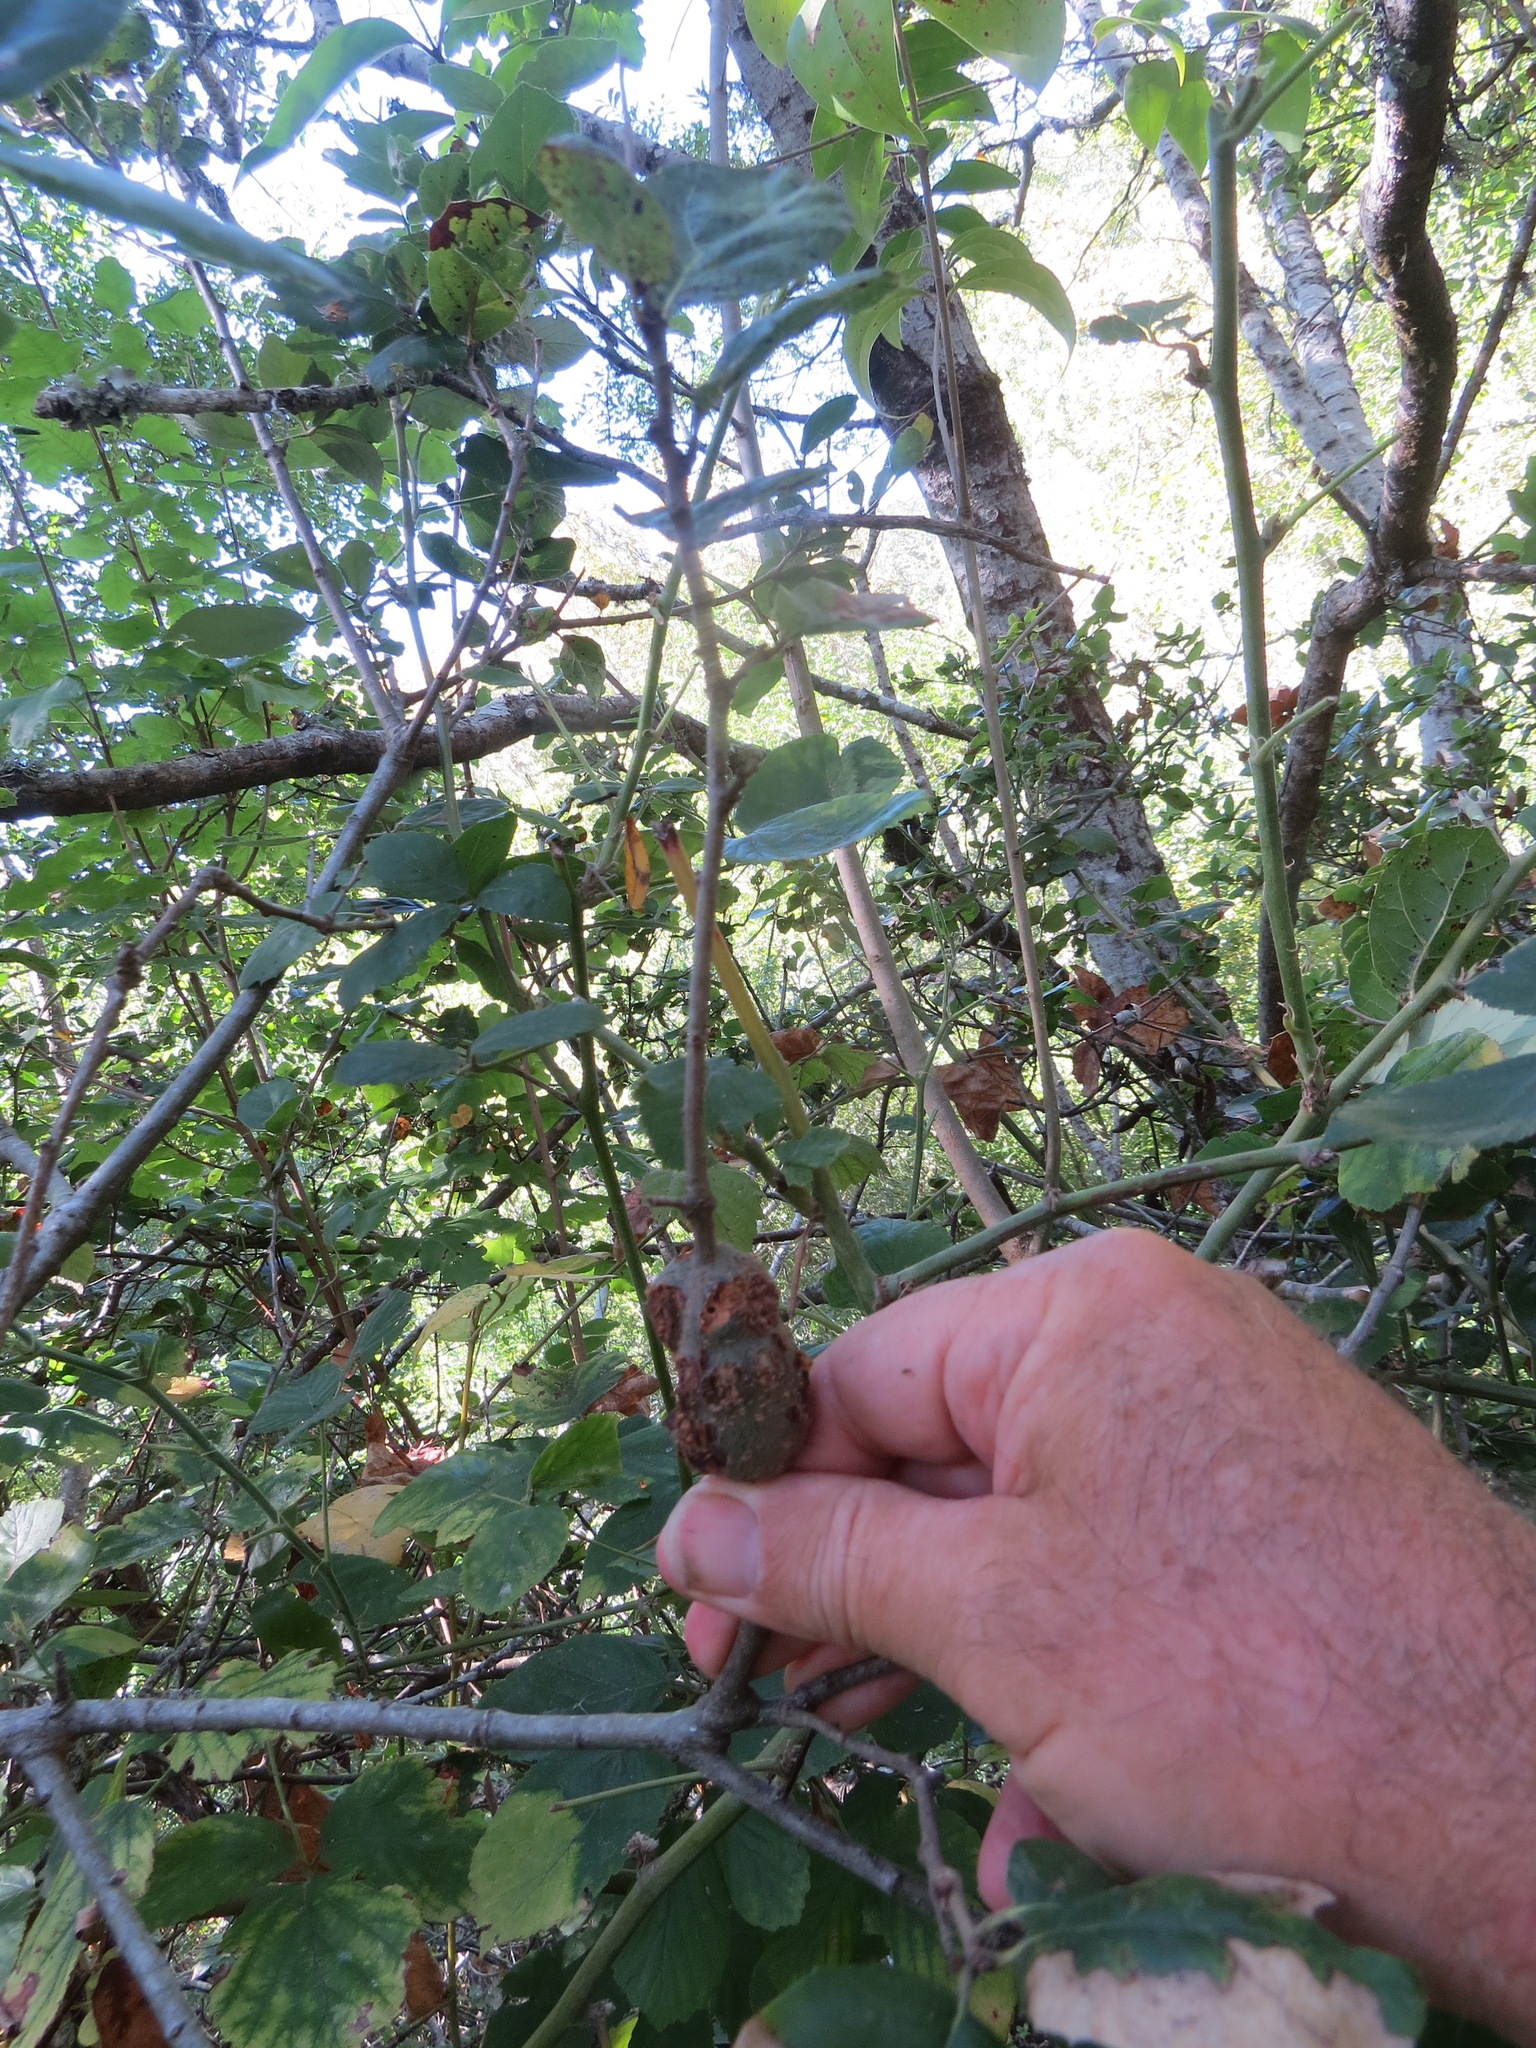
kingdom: Animalia
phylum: Arthropoda
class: Insecta
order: Hymenoptera
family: Cynipidae
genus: Callirhytis
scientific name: Callirhytis
